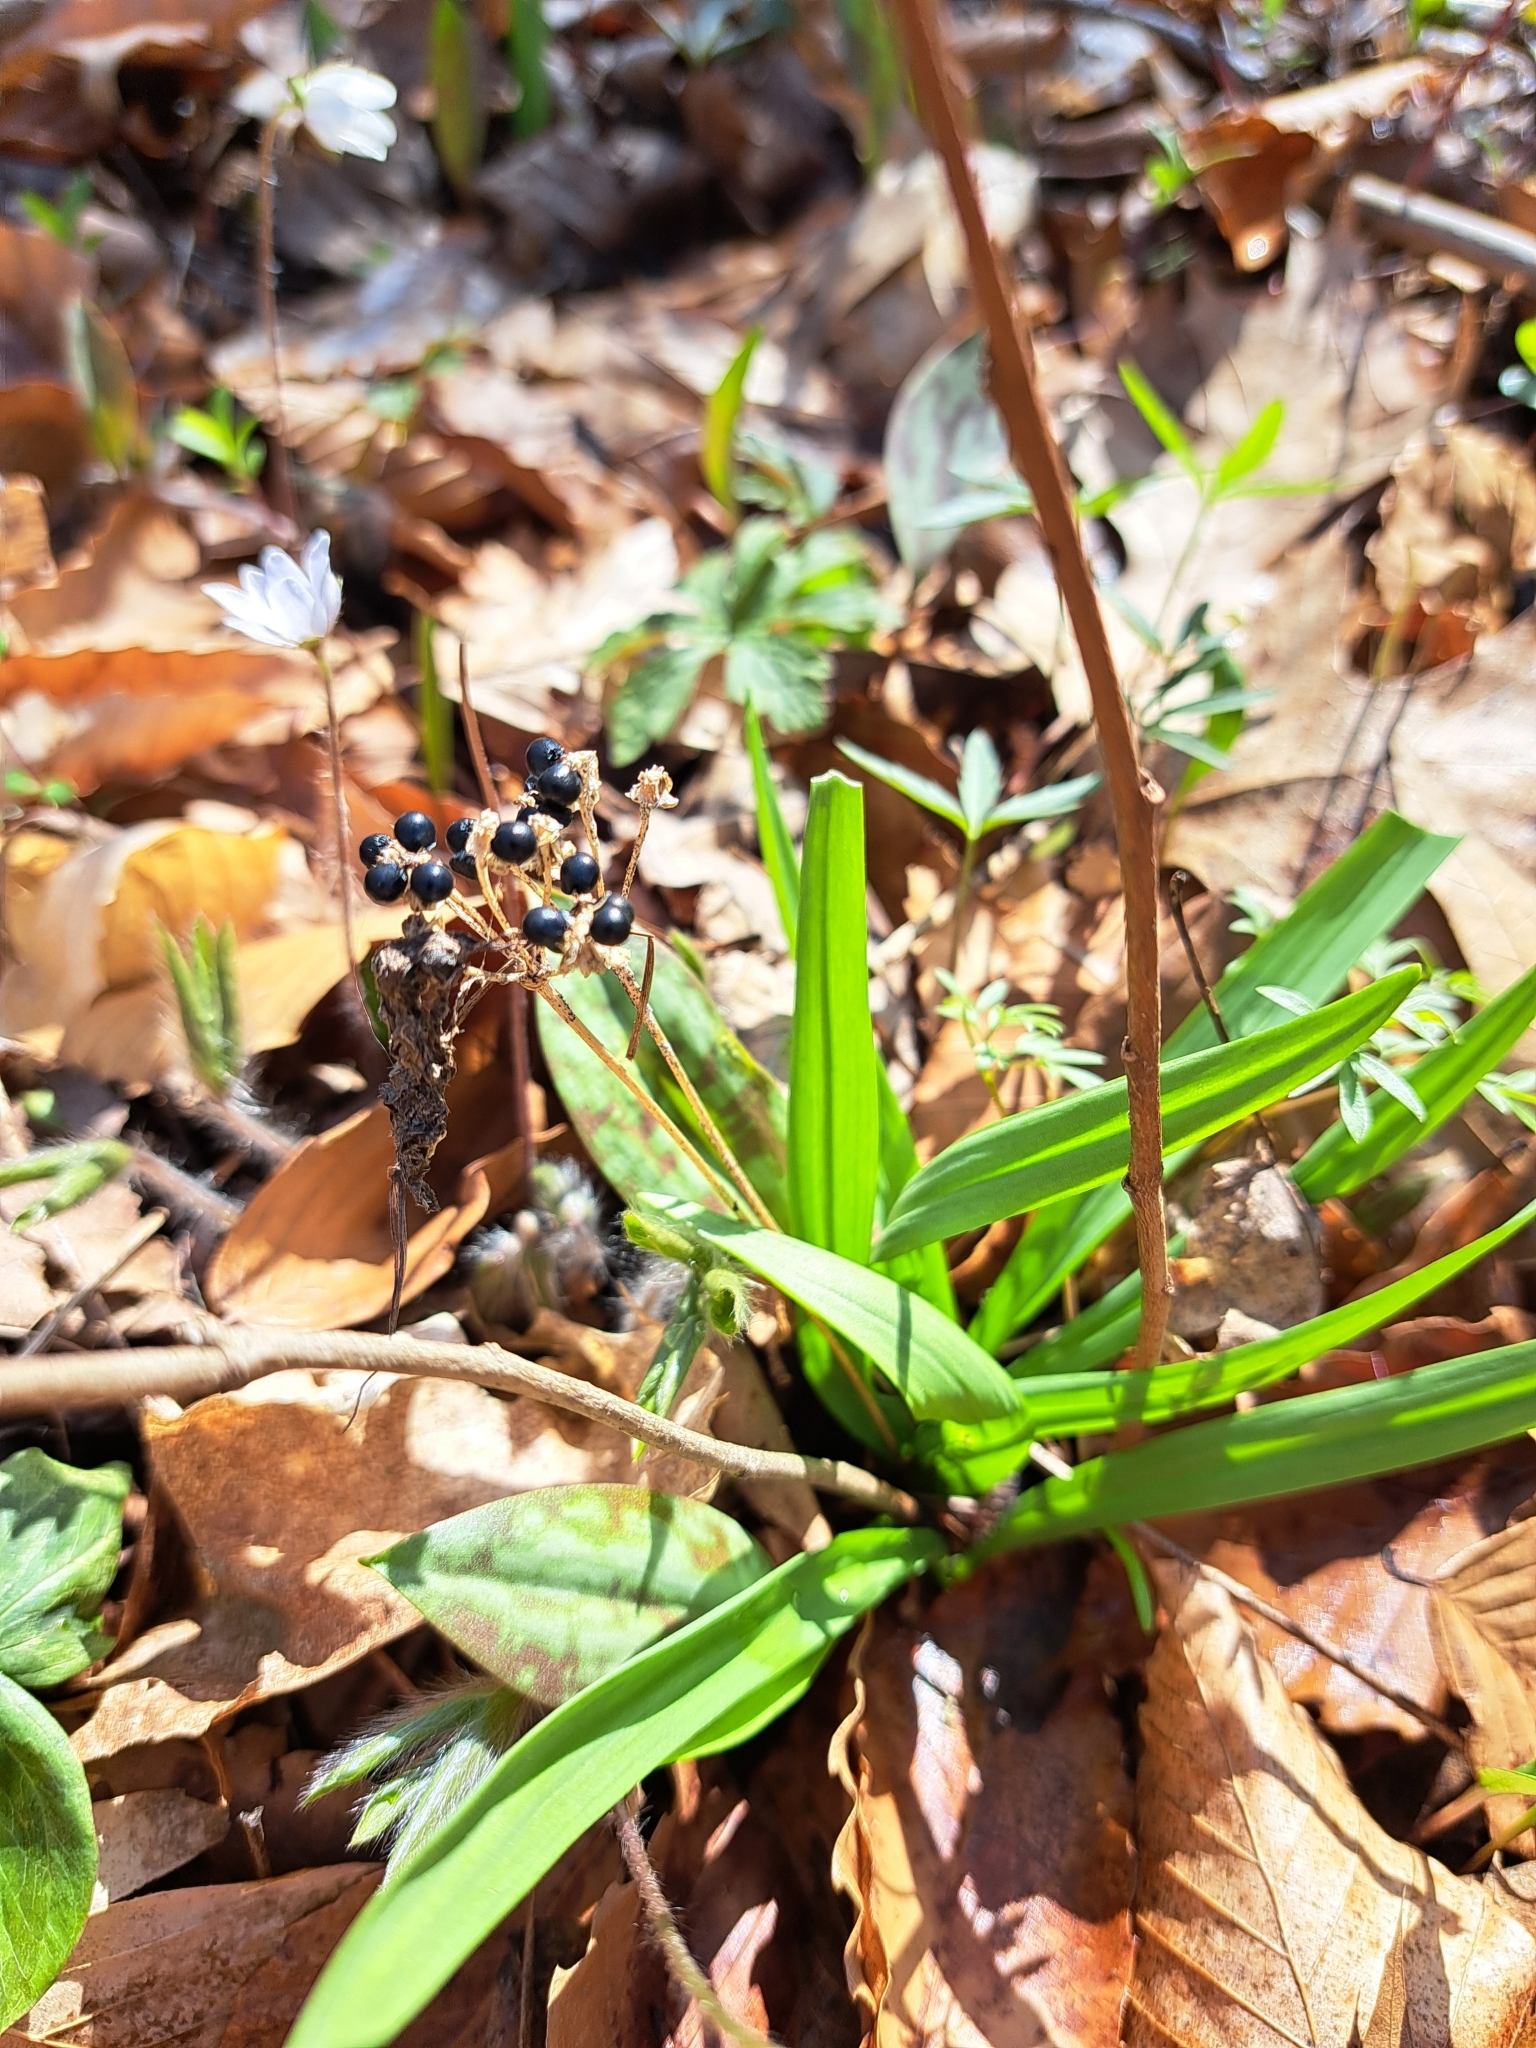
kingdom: Plantae
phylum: Tracheophyta
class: Liliopsida
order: Asparagales
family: Amaryllidaceae
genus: Allium
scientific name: Allium tricoccum
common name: Ramp
